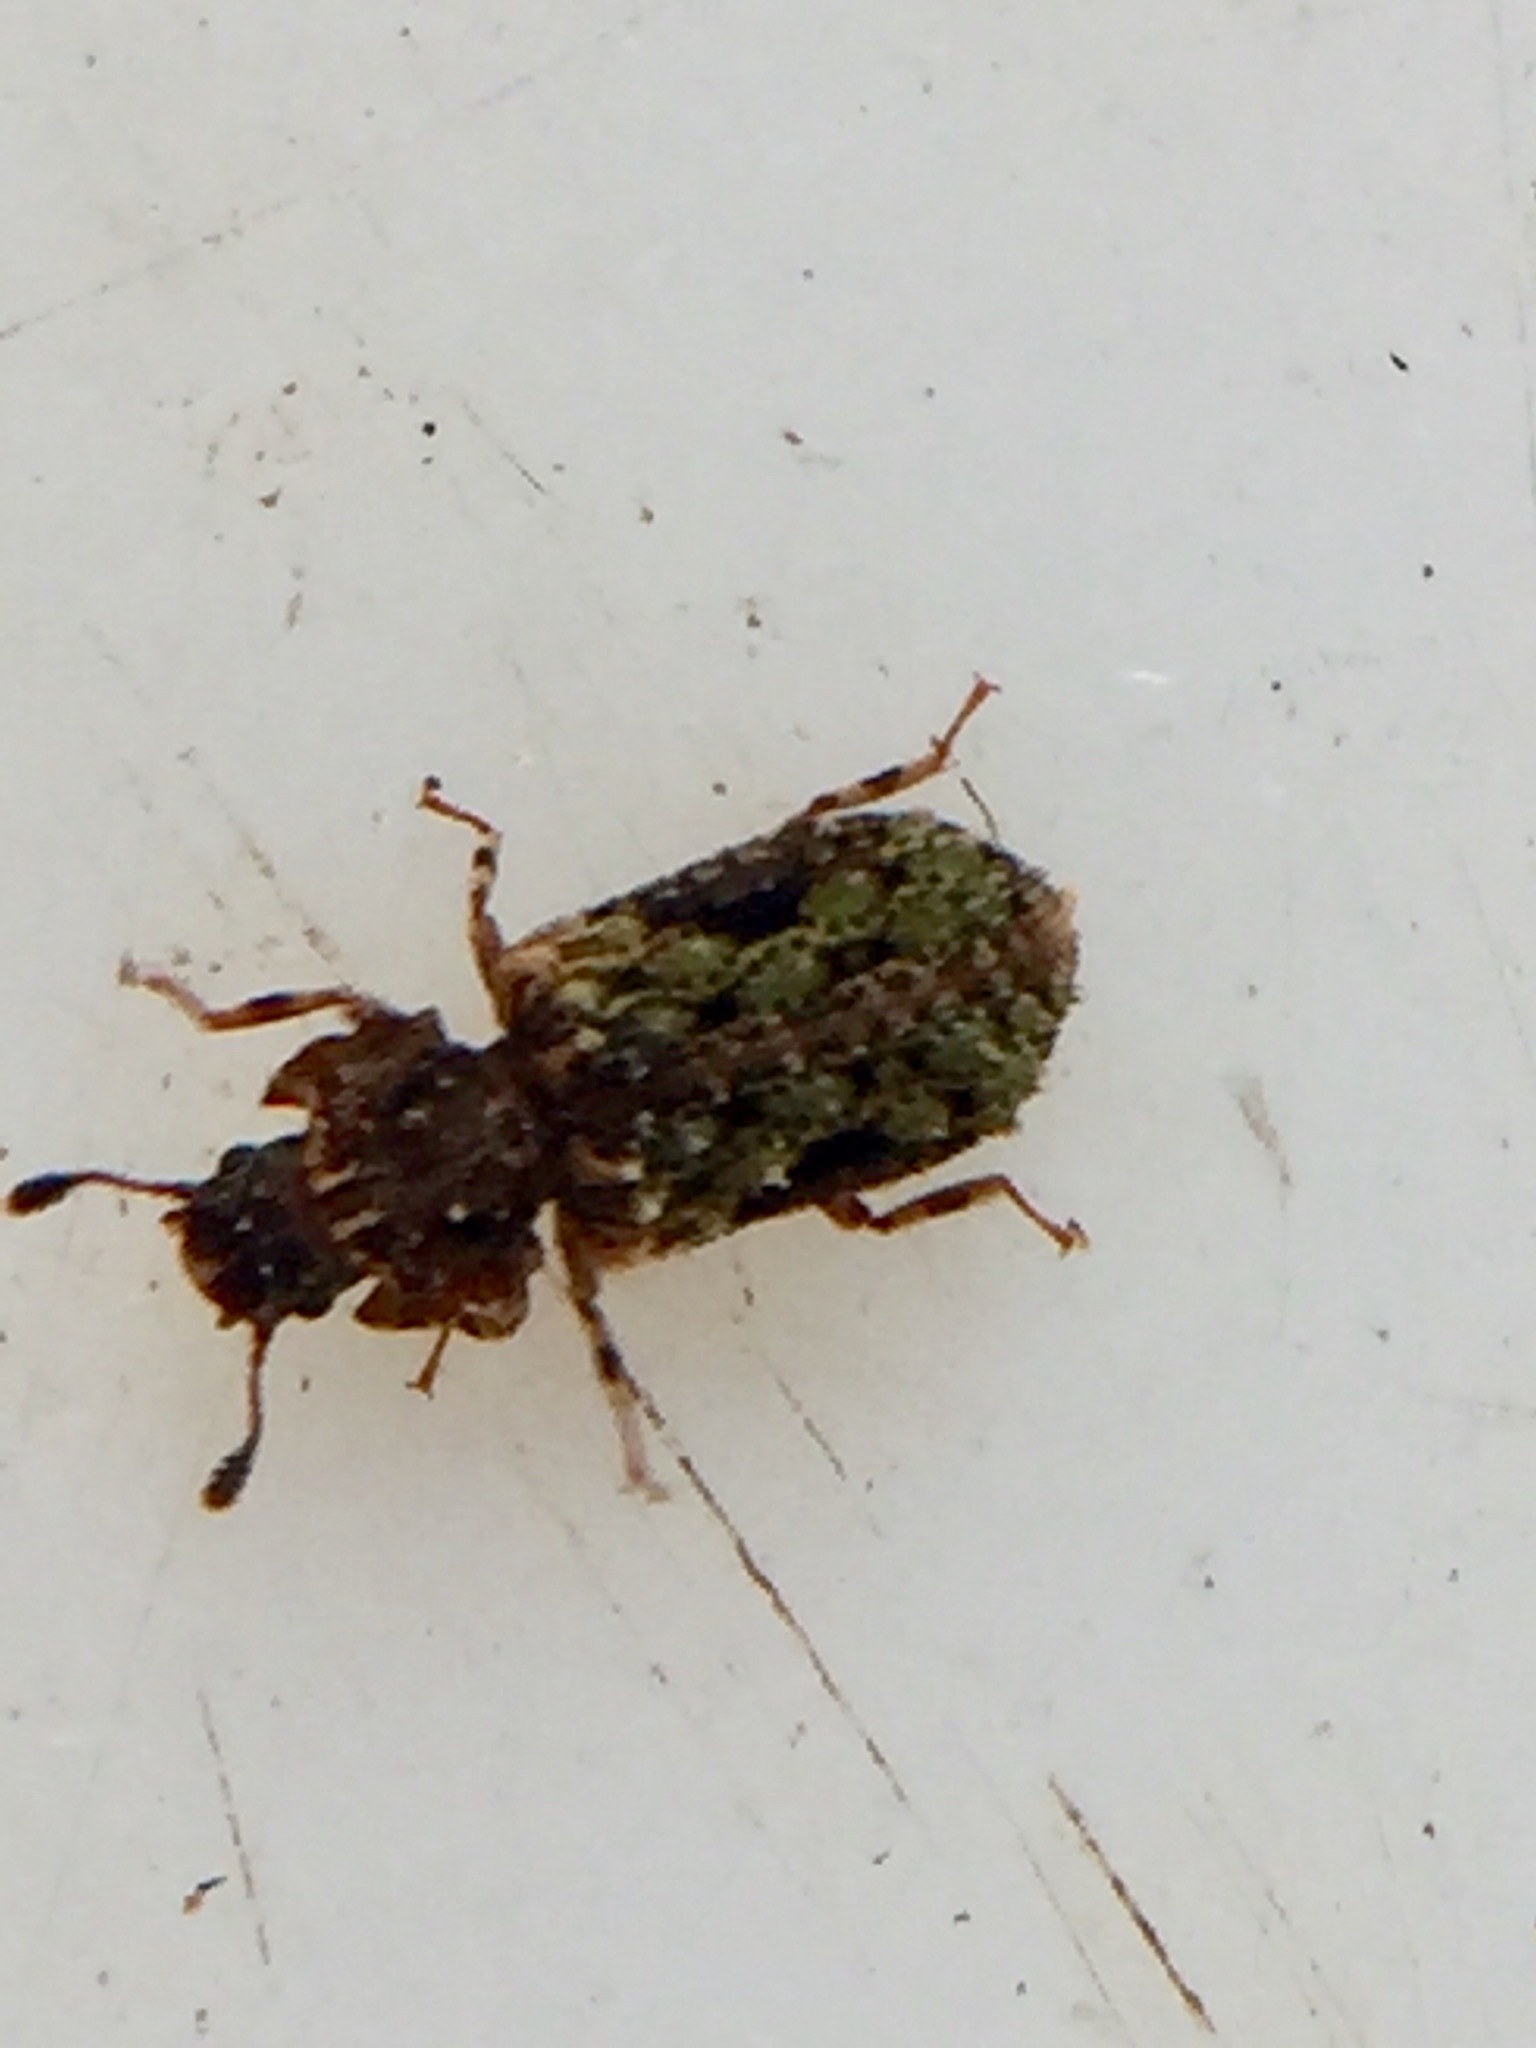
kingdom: Animalia
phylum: Arthropoda
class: Insecta
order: Coleoptera
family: Zopheridae
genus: Pristoderus
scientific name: Pristoderus
